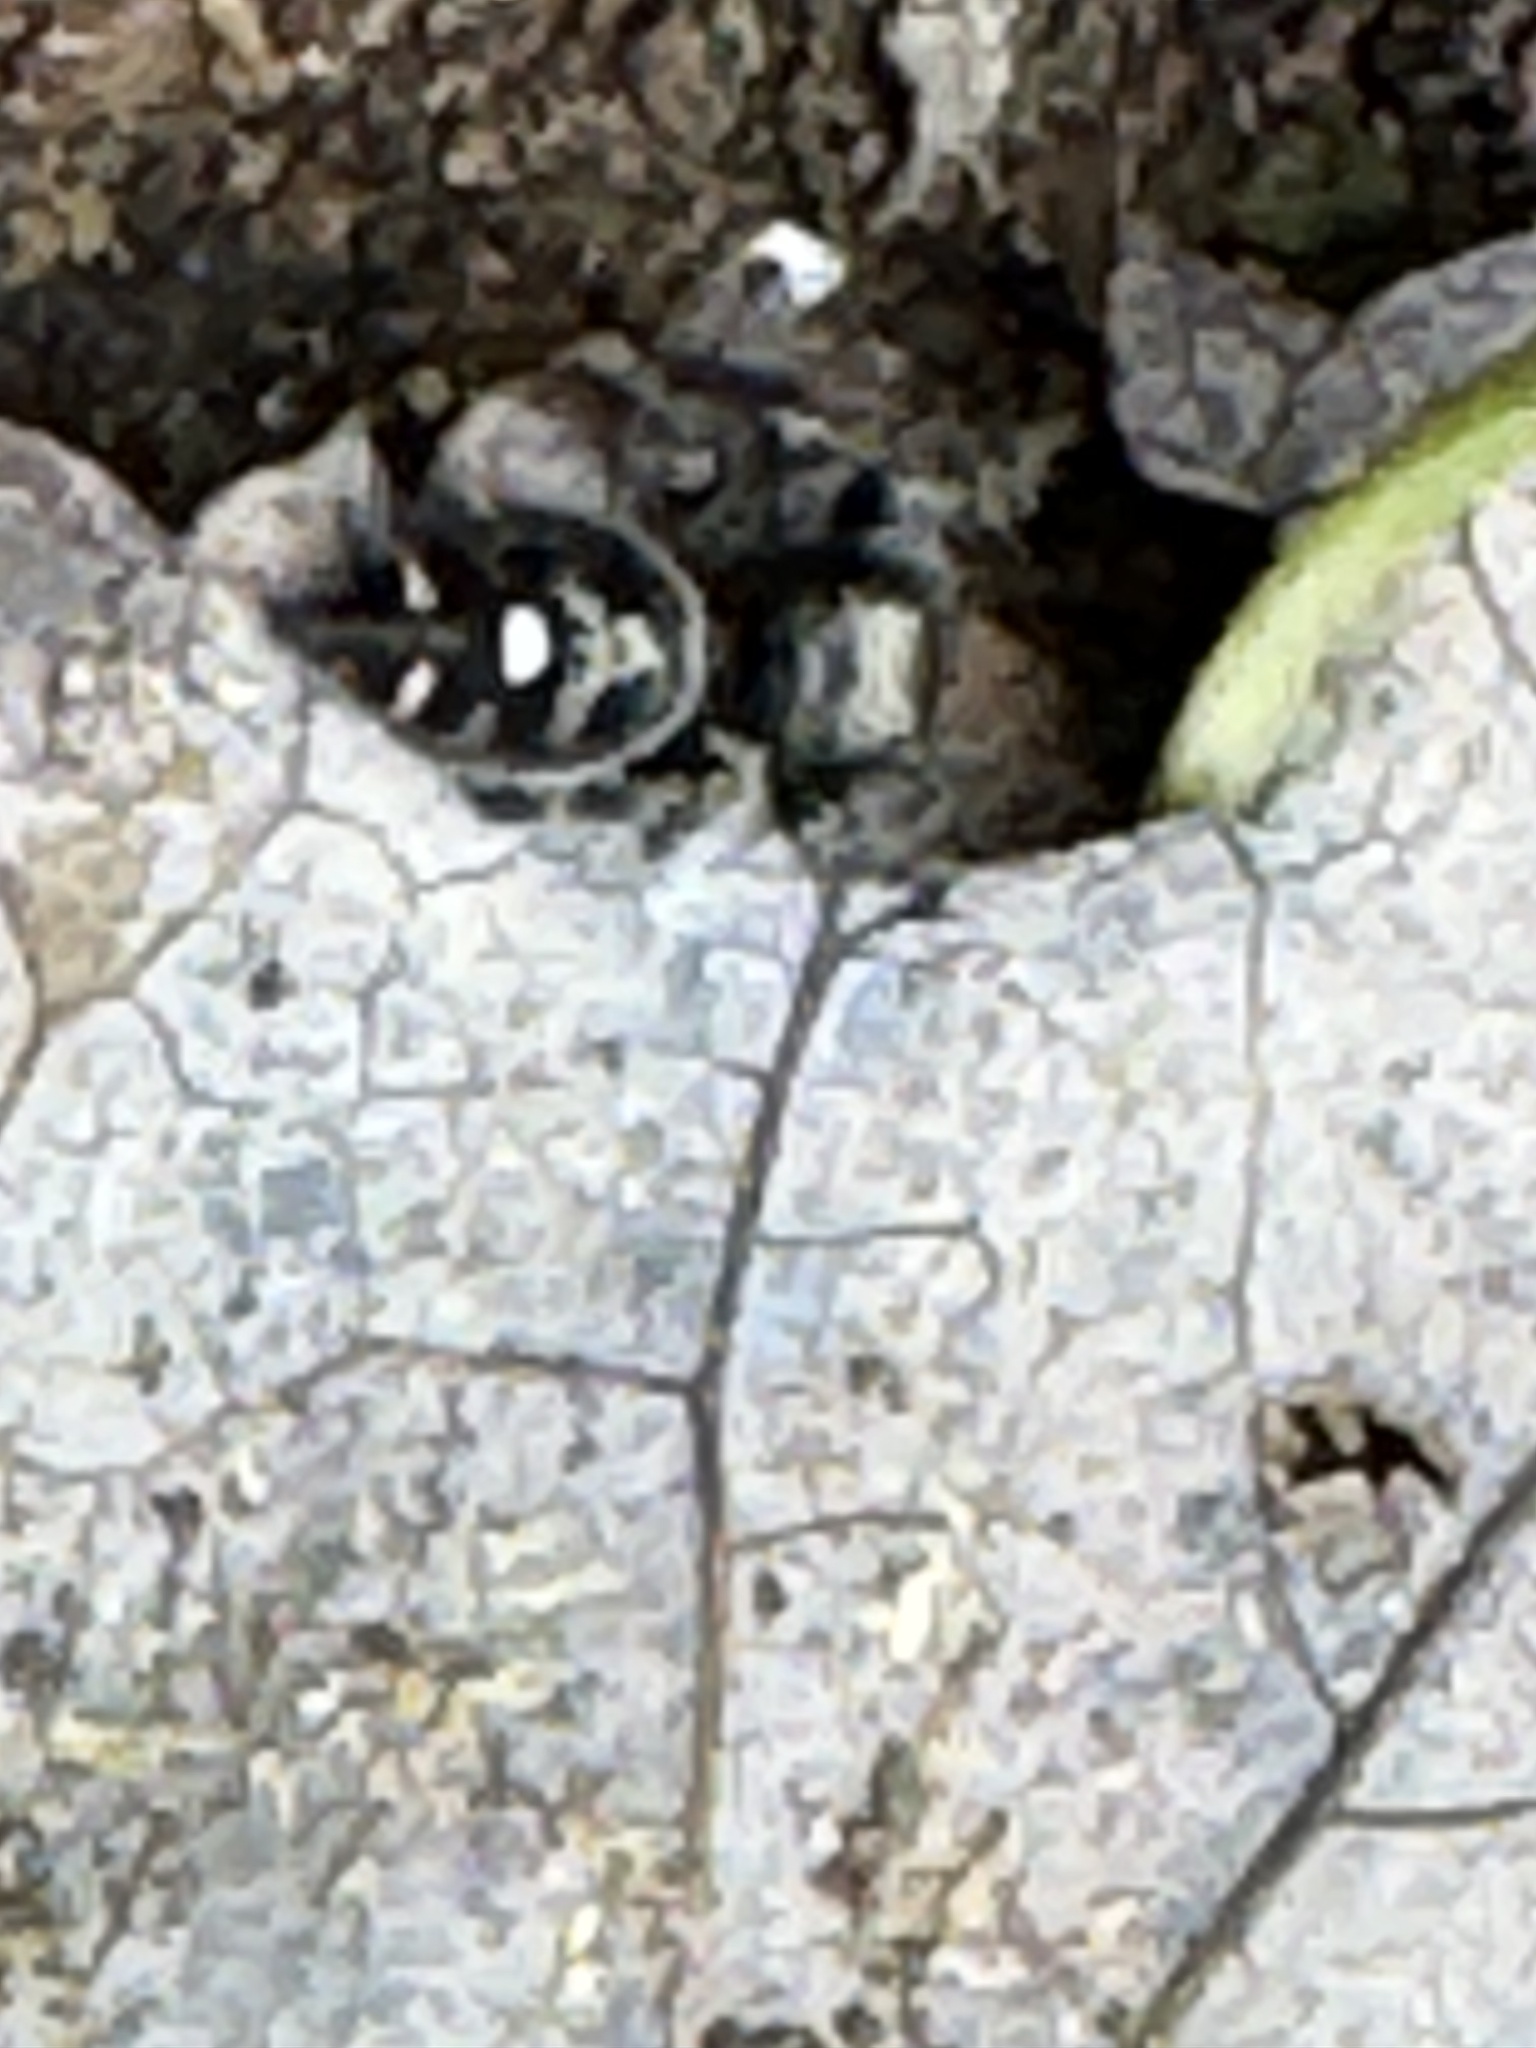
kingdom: Animalia
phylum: Arthropoda
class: Arachnida
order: Araneae
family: Salticidae
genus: Phidippus
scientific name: Phidippus audax
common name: Bold jumper
